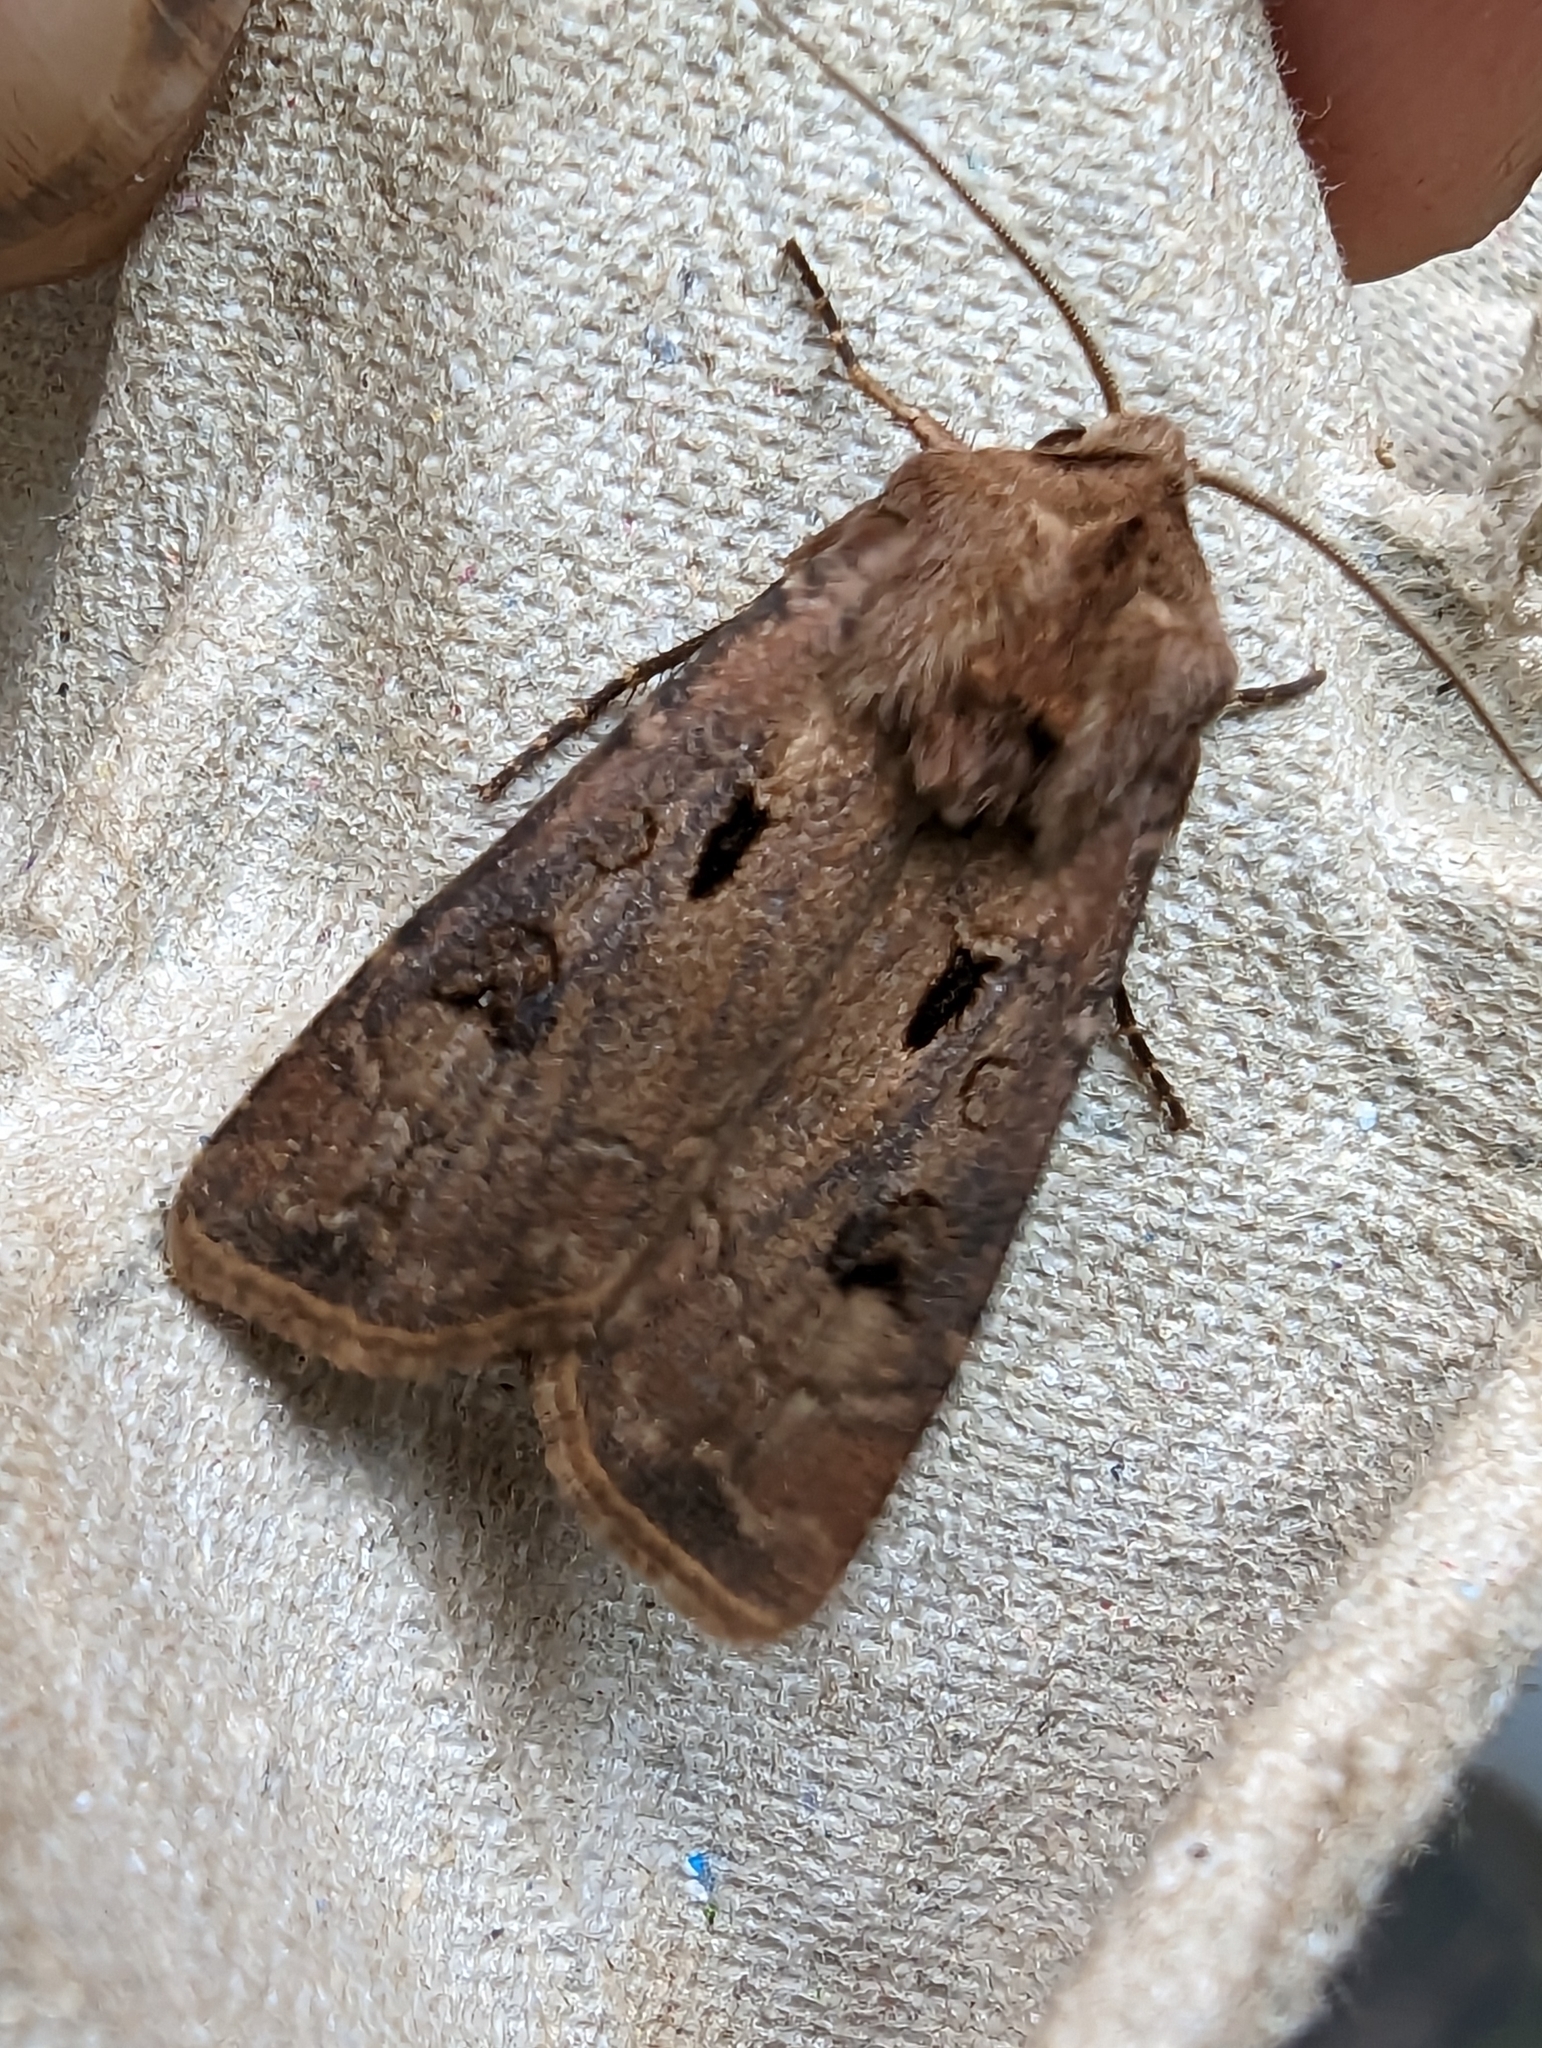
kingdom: Animalia
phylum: Arthropoda
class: Insecta
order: Lepidoptera
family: Noctuidae
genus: Agrotis
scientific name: Agrotis exclamationis
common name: Heart and dart
